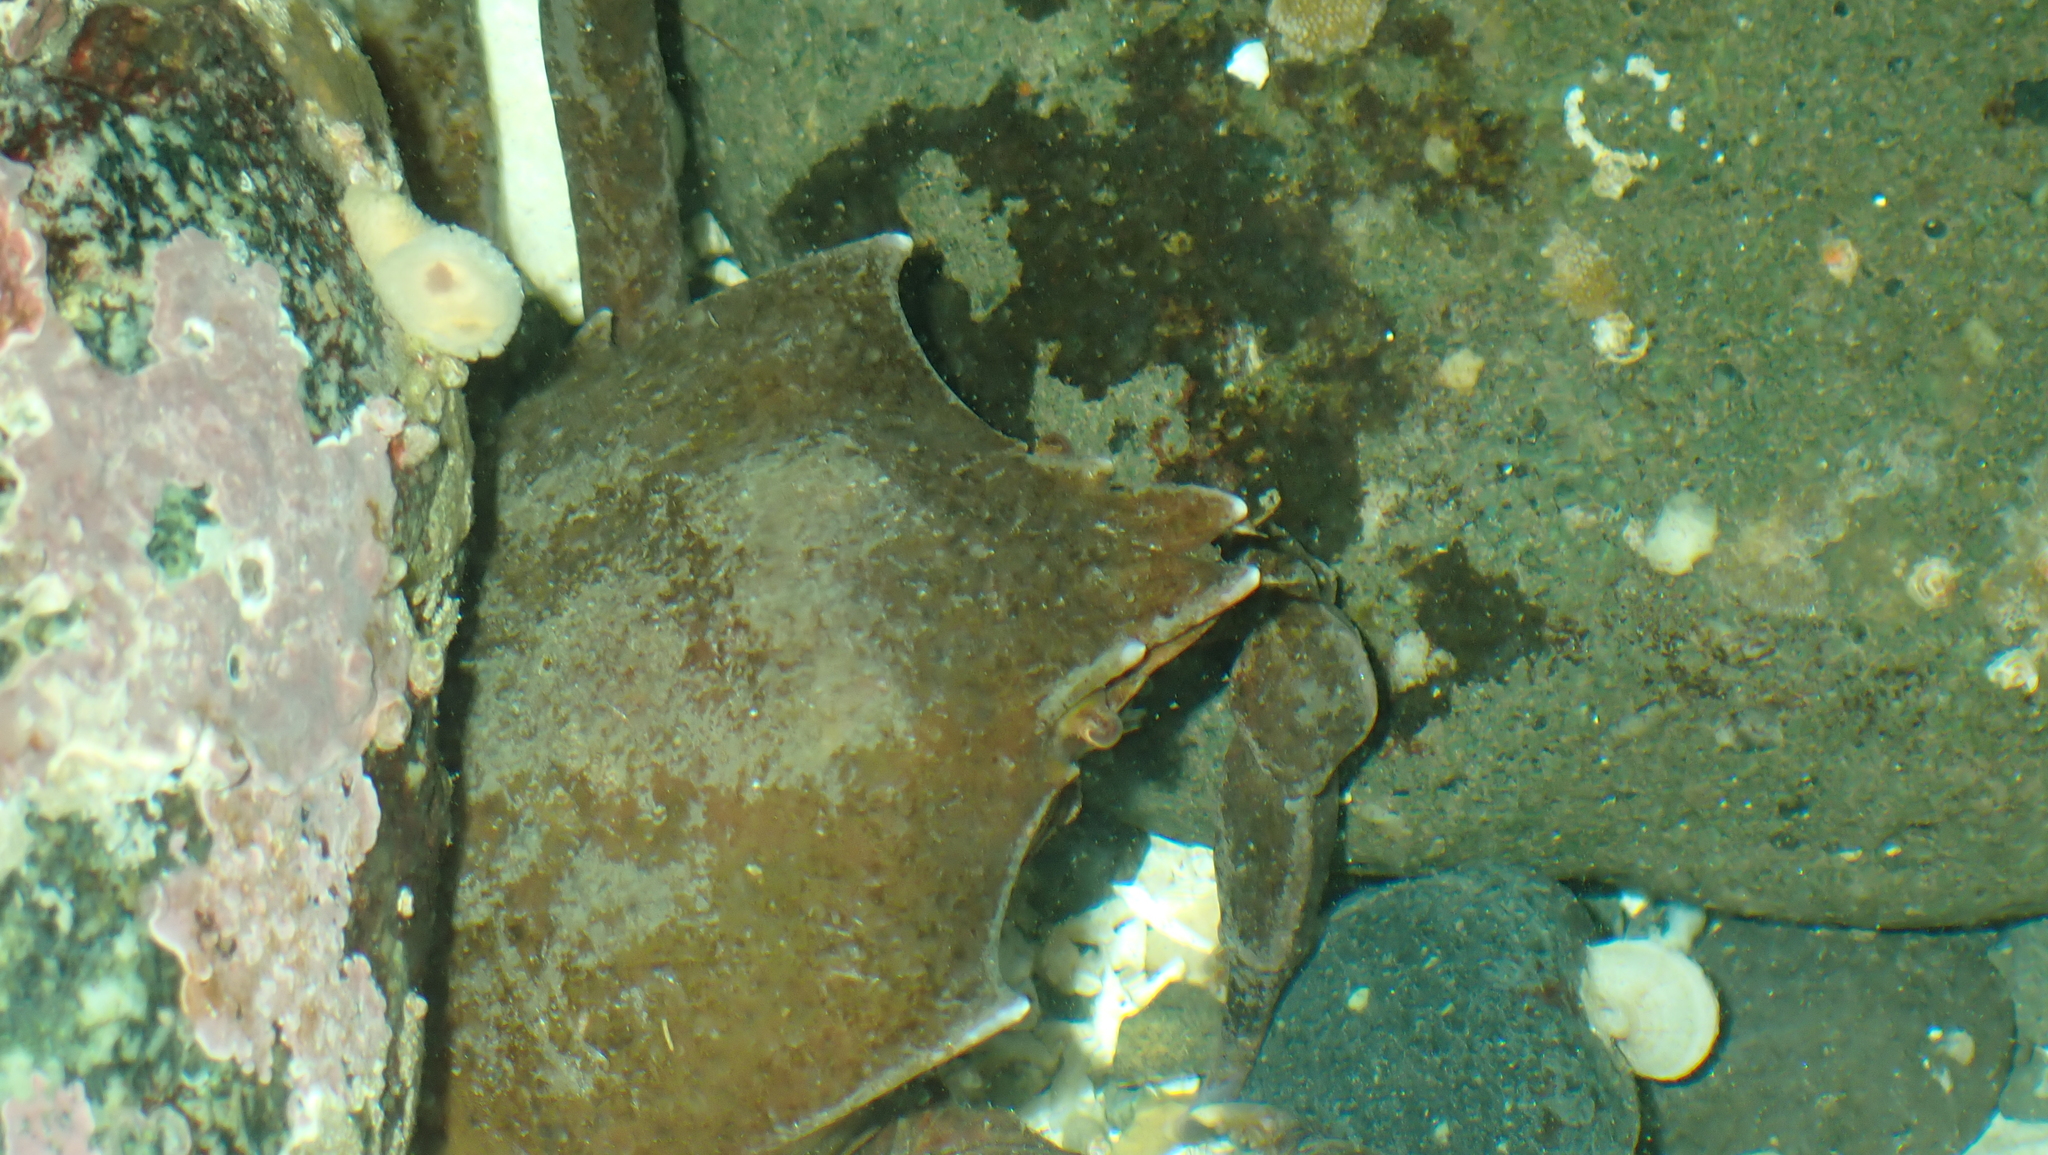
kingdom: Animalia
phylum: Arthropoda
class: Malacostraca
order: Decapoda
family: Epialtidae
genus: Pugettia
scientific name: Pugettia producta
